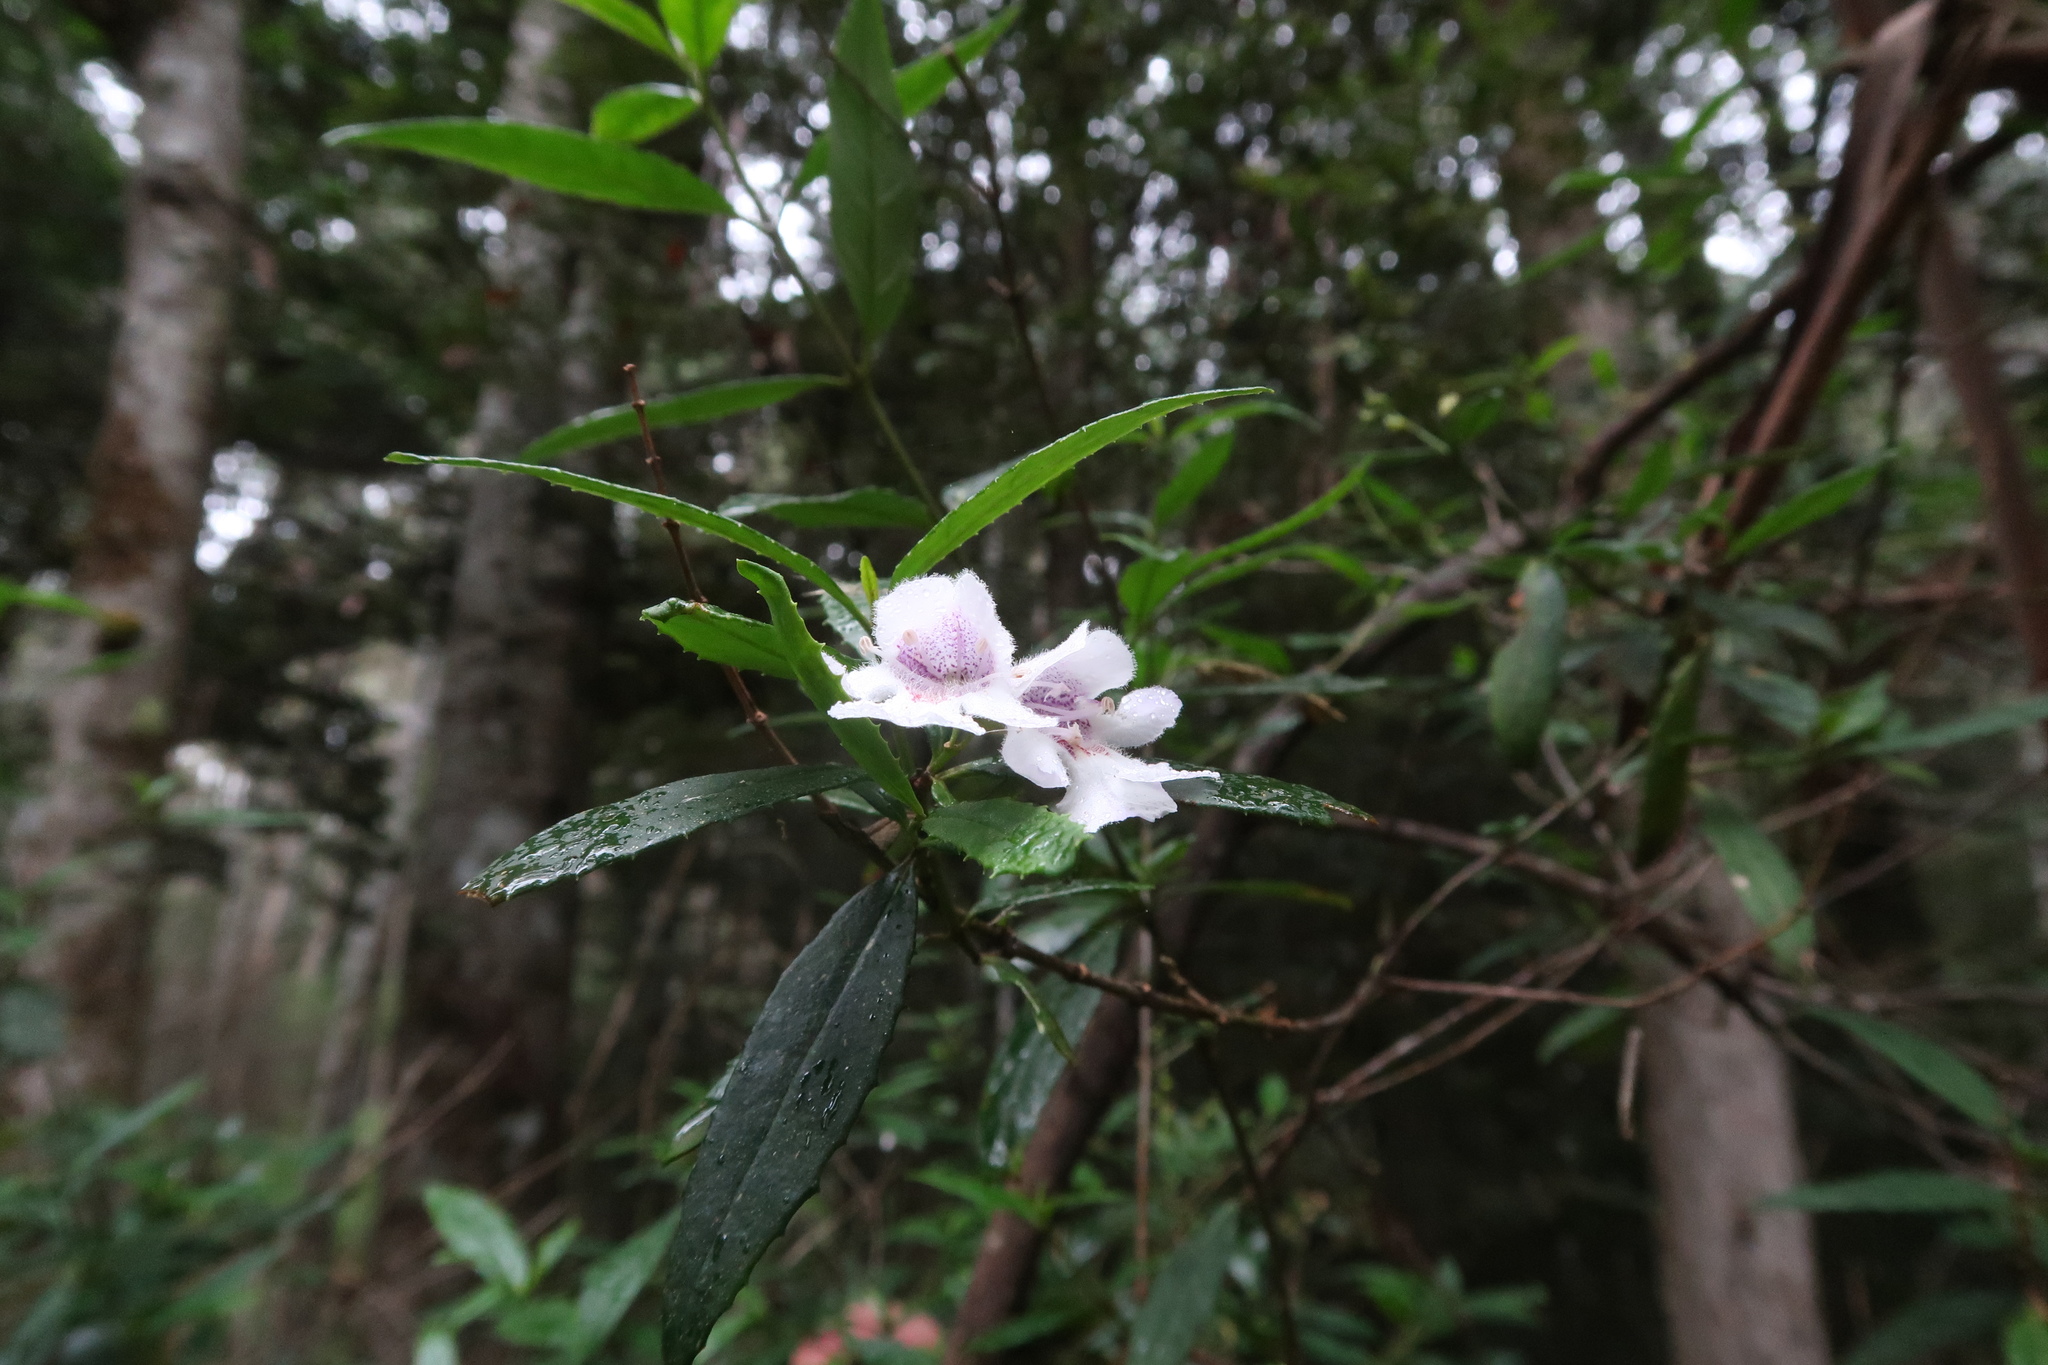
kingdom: Plantae
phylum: Tracheophyta
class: Magnoliopsida
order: Lamiales
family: Lamiaceae
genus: Prostanthera
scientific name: Prostanthera lasianthos
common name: Mountain-lilac
